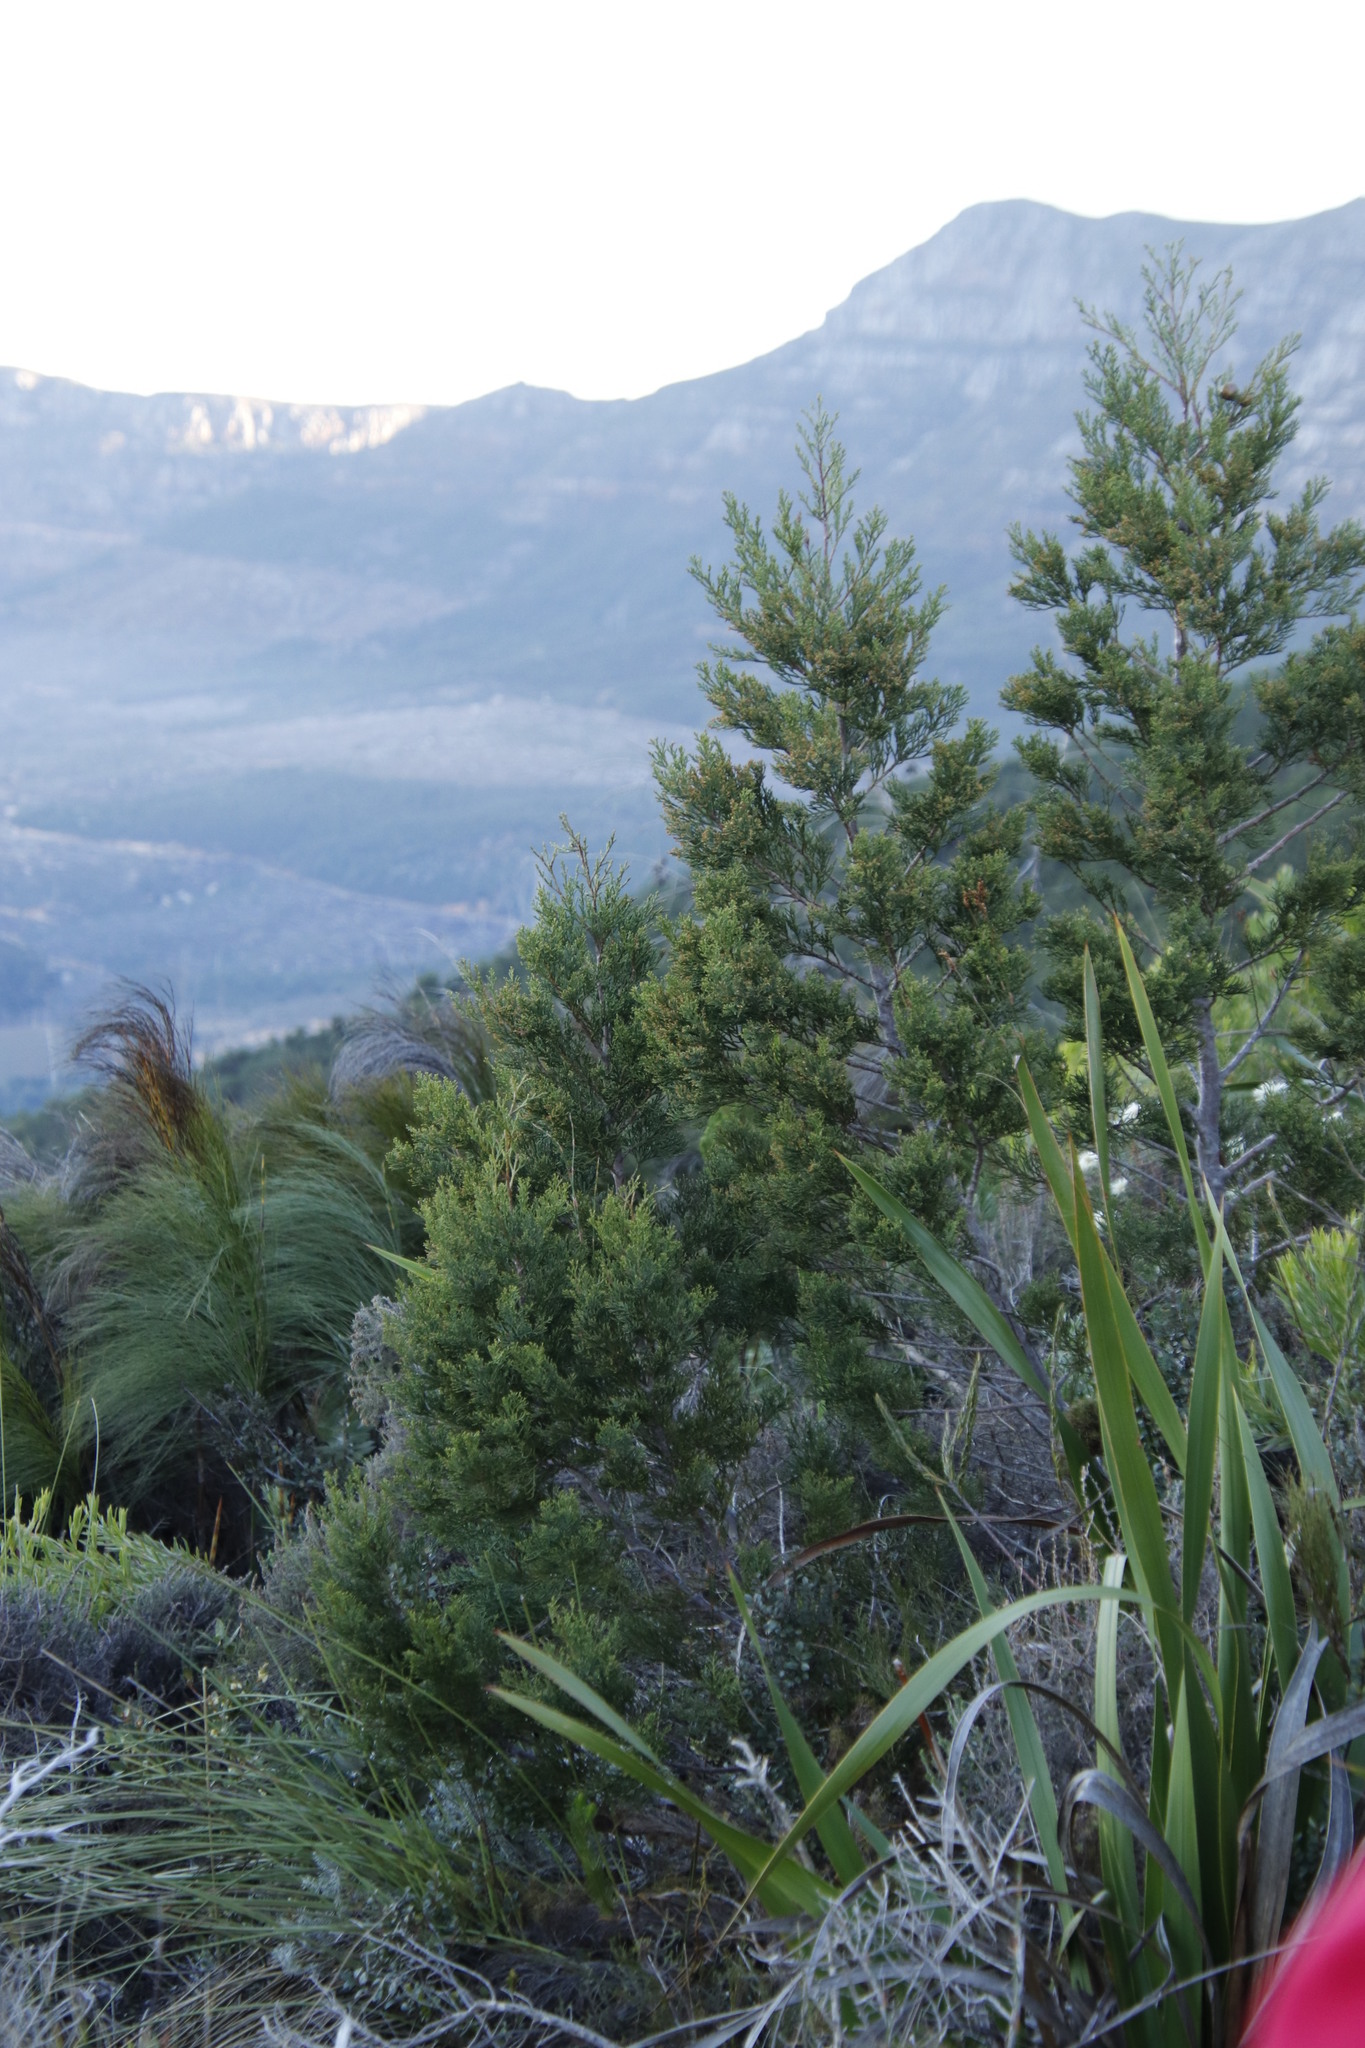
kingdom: Plantae
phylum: Tracheophyta
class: Pinopsida
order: Pinales
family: Cupressaceae
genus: Widdringtonia
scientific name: Widdringtonia nodiflora
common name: Cape cypress
